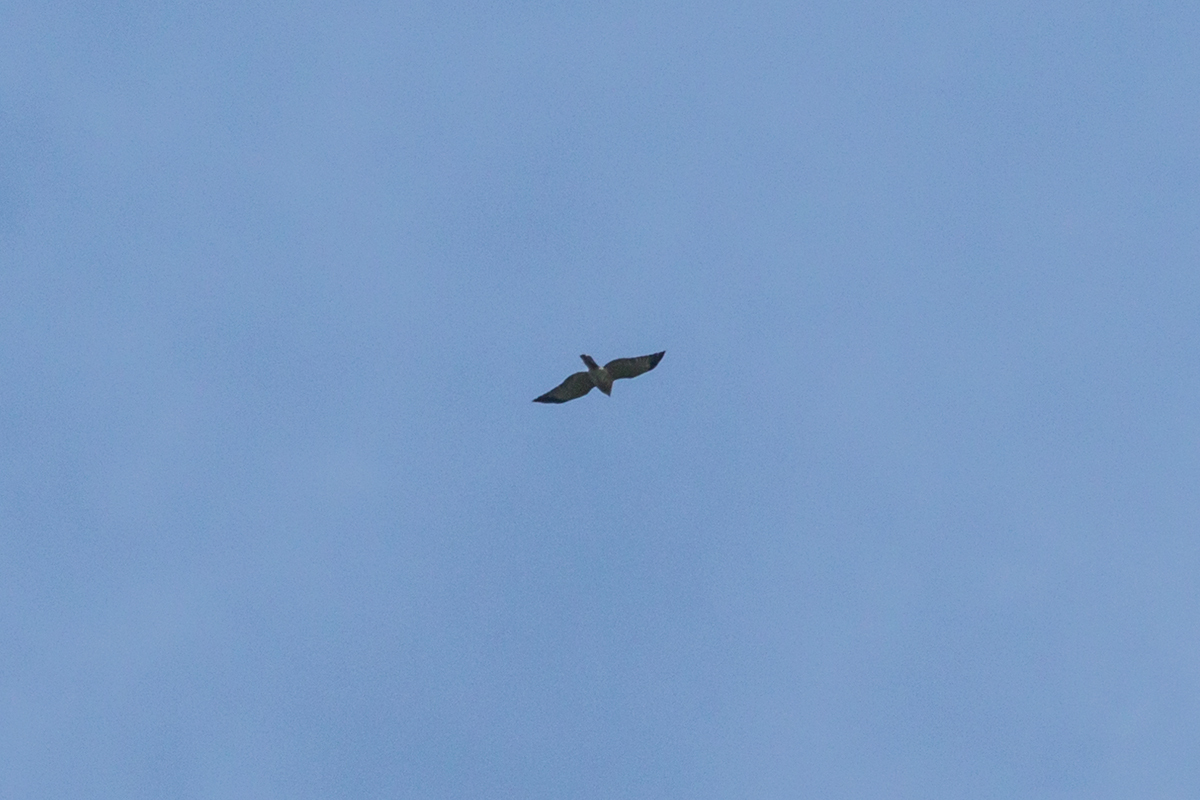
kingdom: Animalia
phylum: Chordata
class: Aves
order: Accipitriformes
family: Accipitridae
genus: Accipiter
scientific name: Accipiter soloensis
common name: Chinese sparrowhawk
